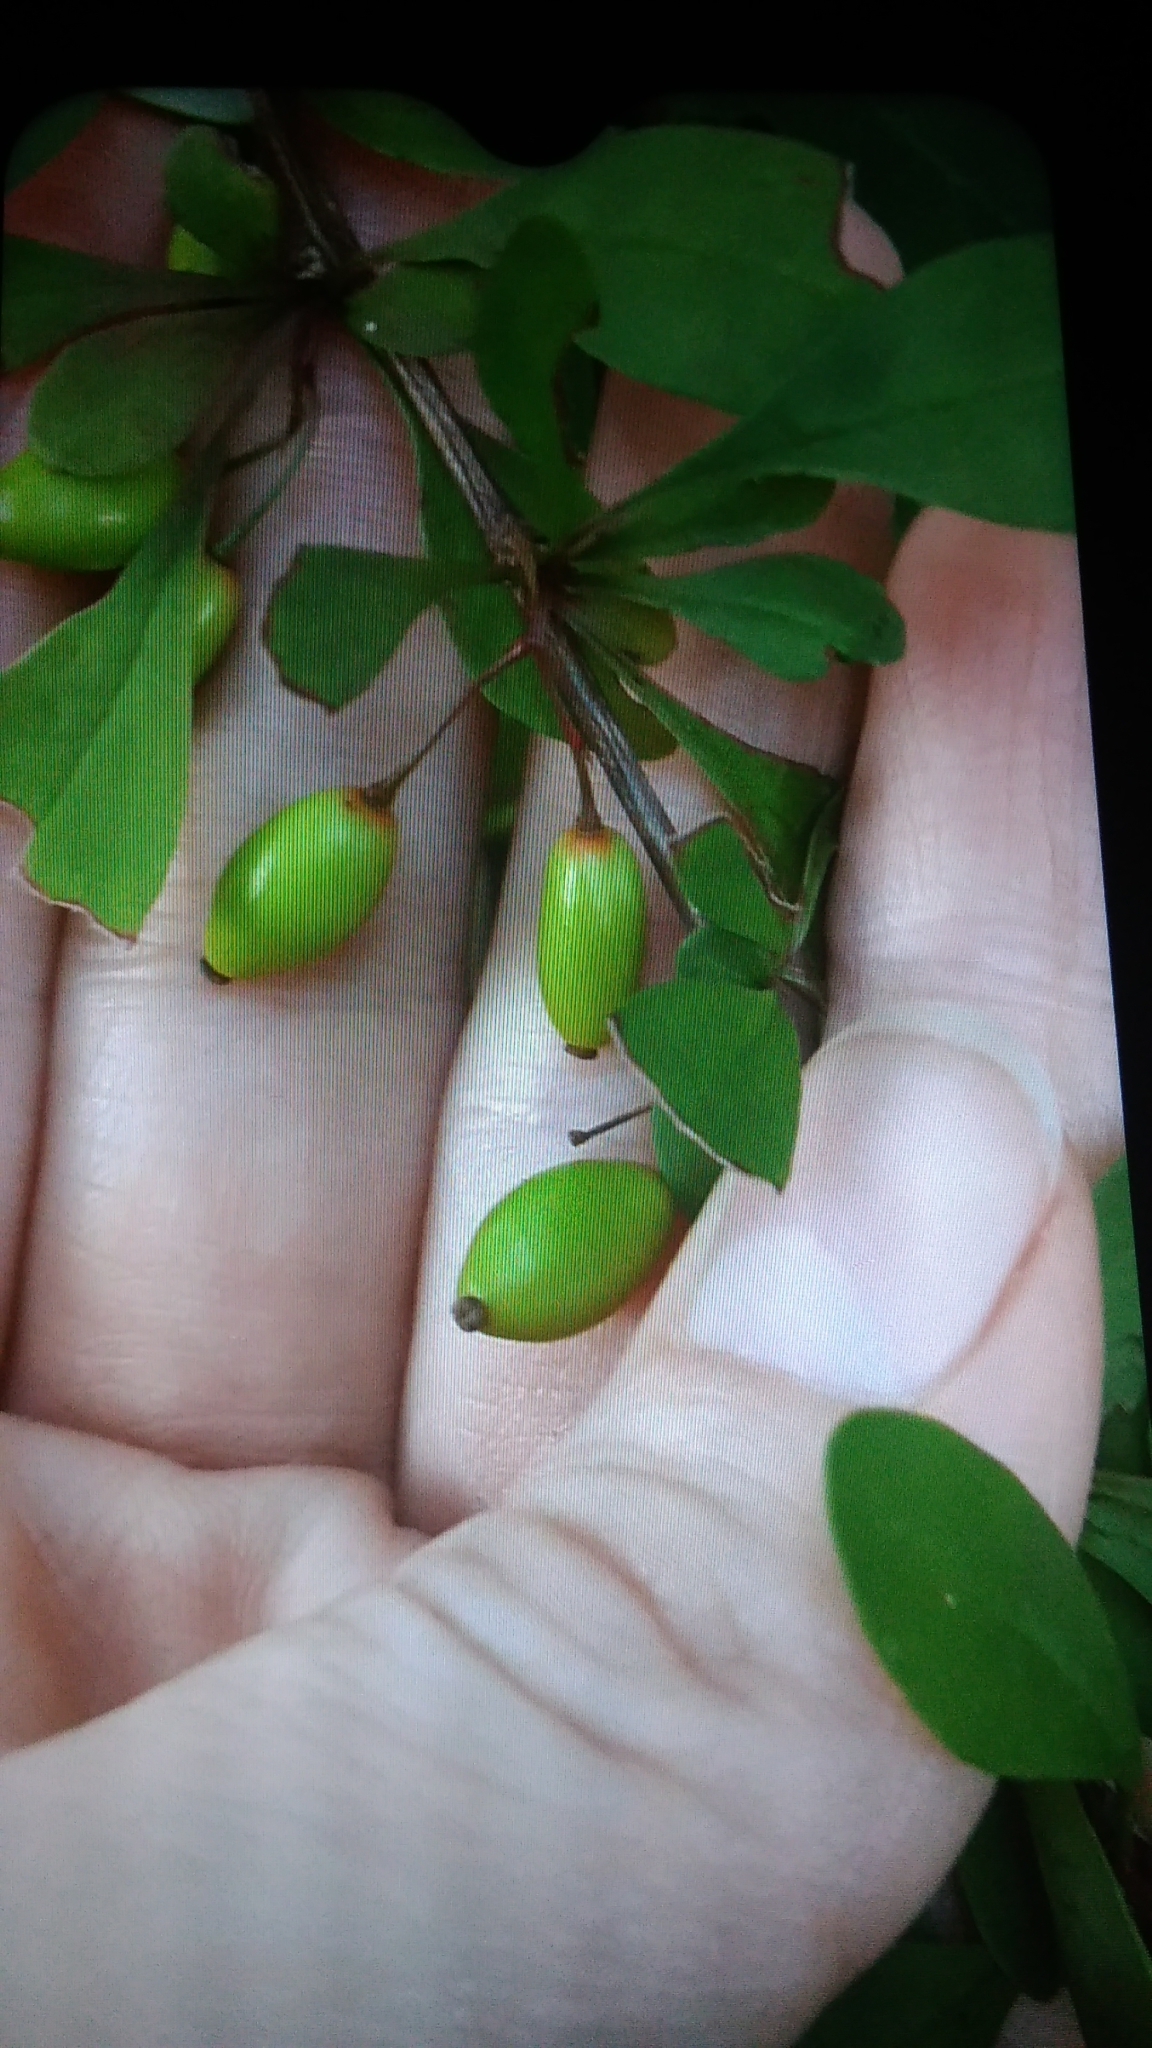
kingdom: Plantae
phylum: Tracheophyta
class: Magnoliopsida
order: Ranunculales
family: Berberidaceae
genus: Berberis
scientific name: Berberis thunbergii
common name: Japanese barberry
